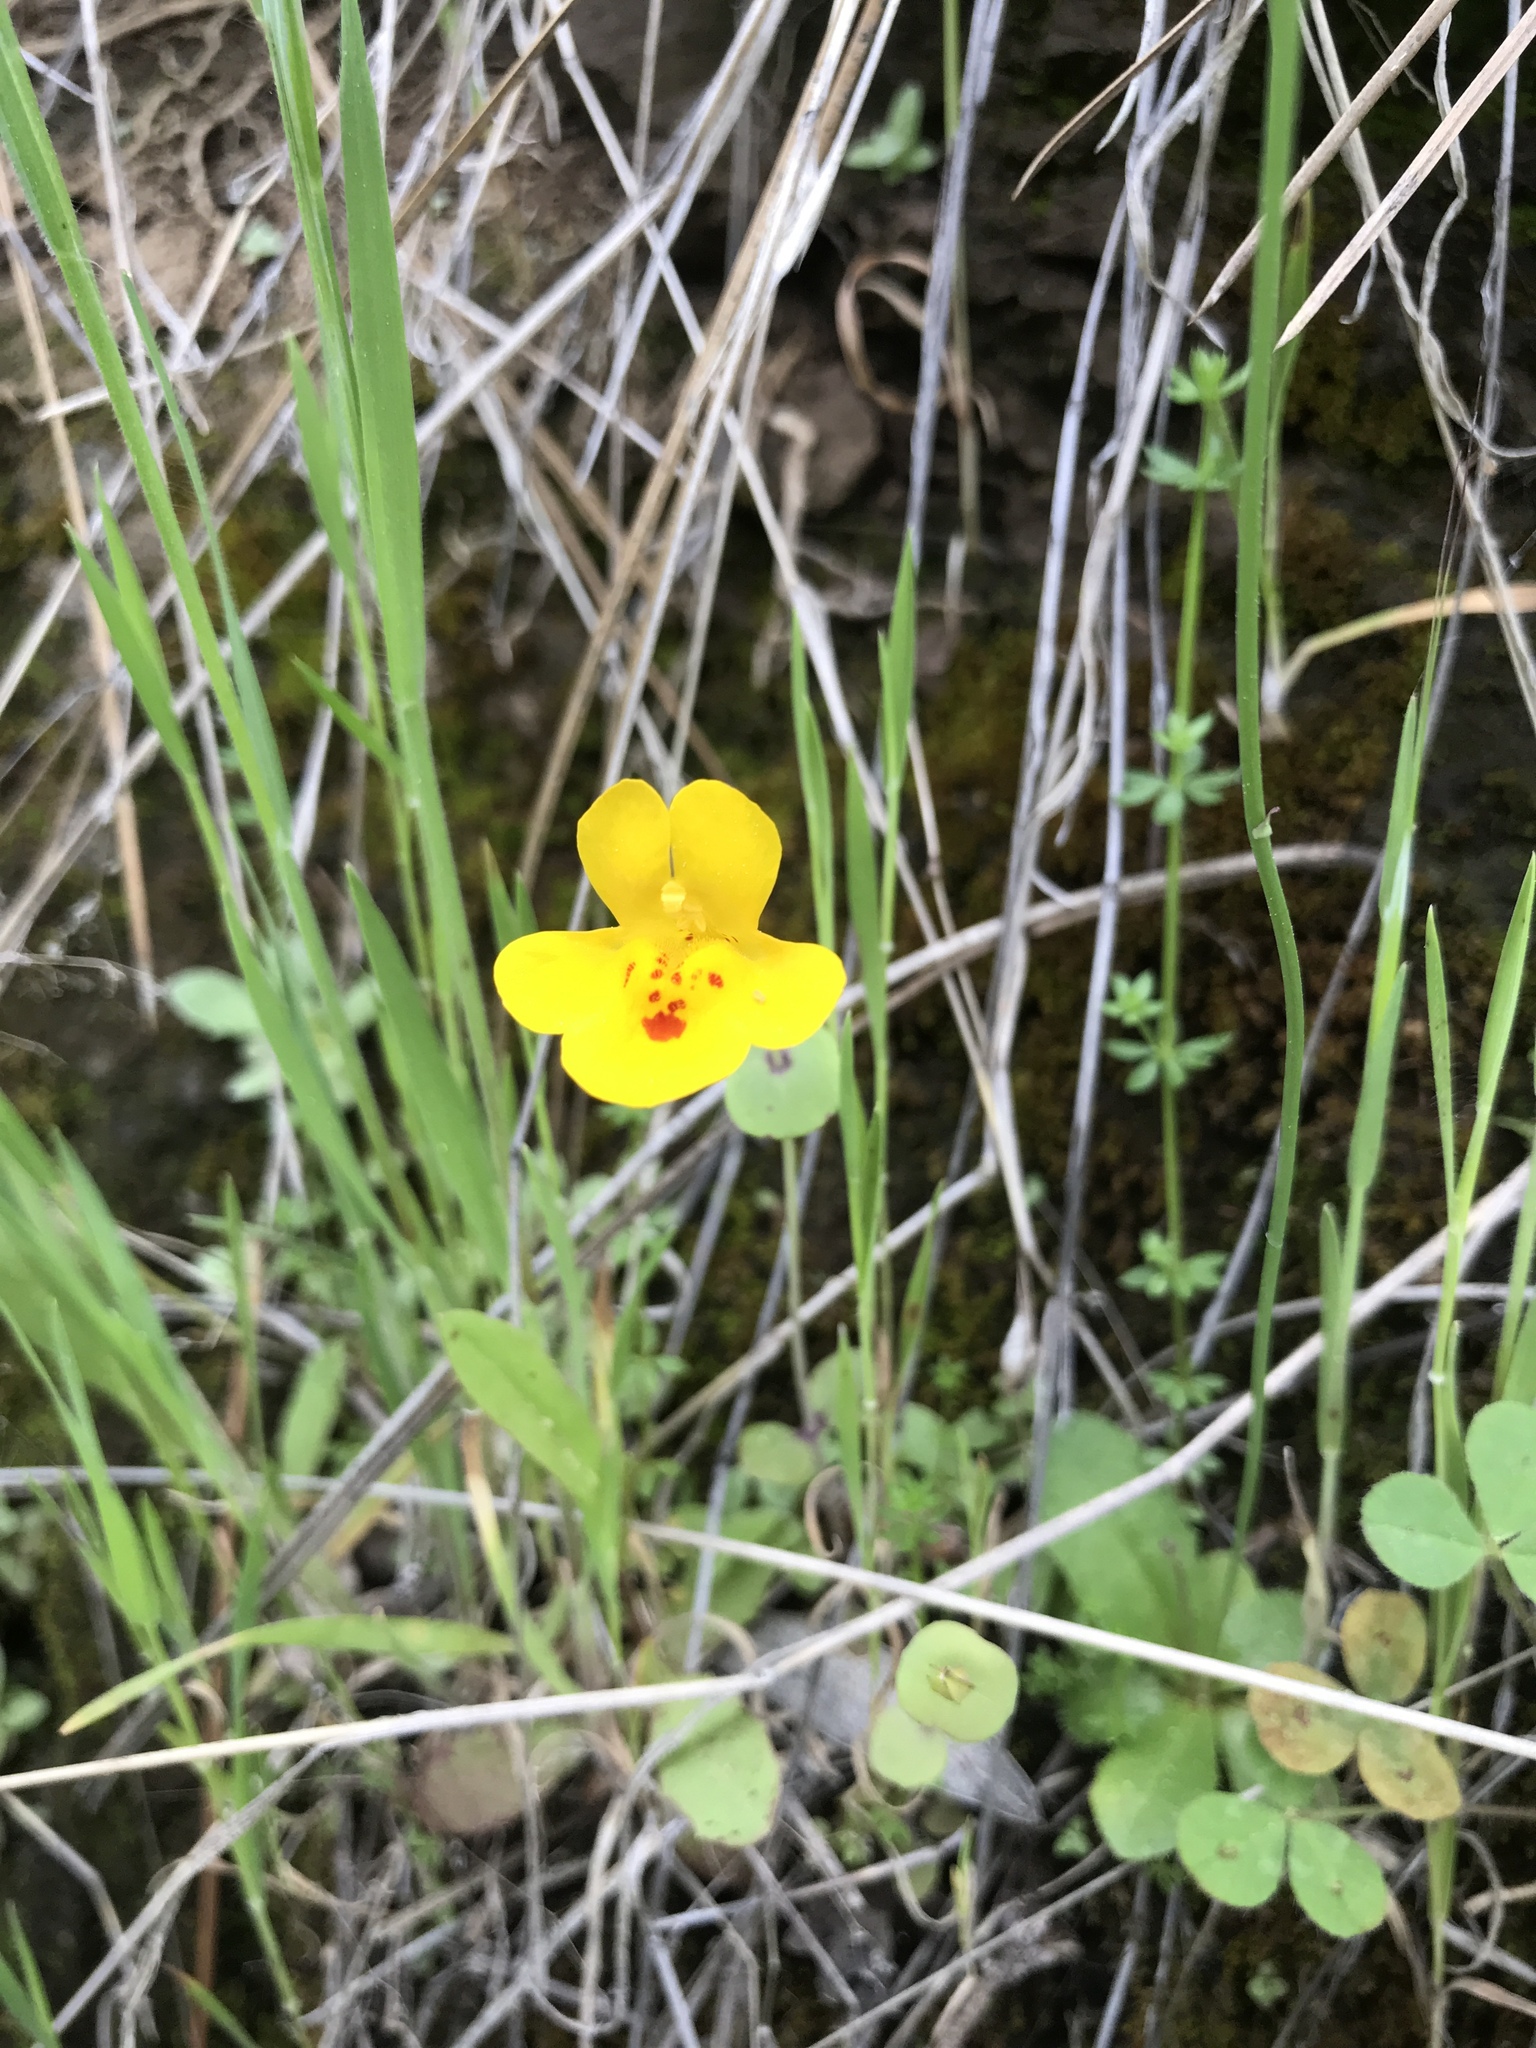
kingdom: Plantae
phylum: Tracheophyta
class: Magnoliopsida
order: Lamiales
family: Phrymaceae
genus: Erythranthe
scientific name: Erythranthe glaucescens
